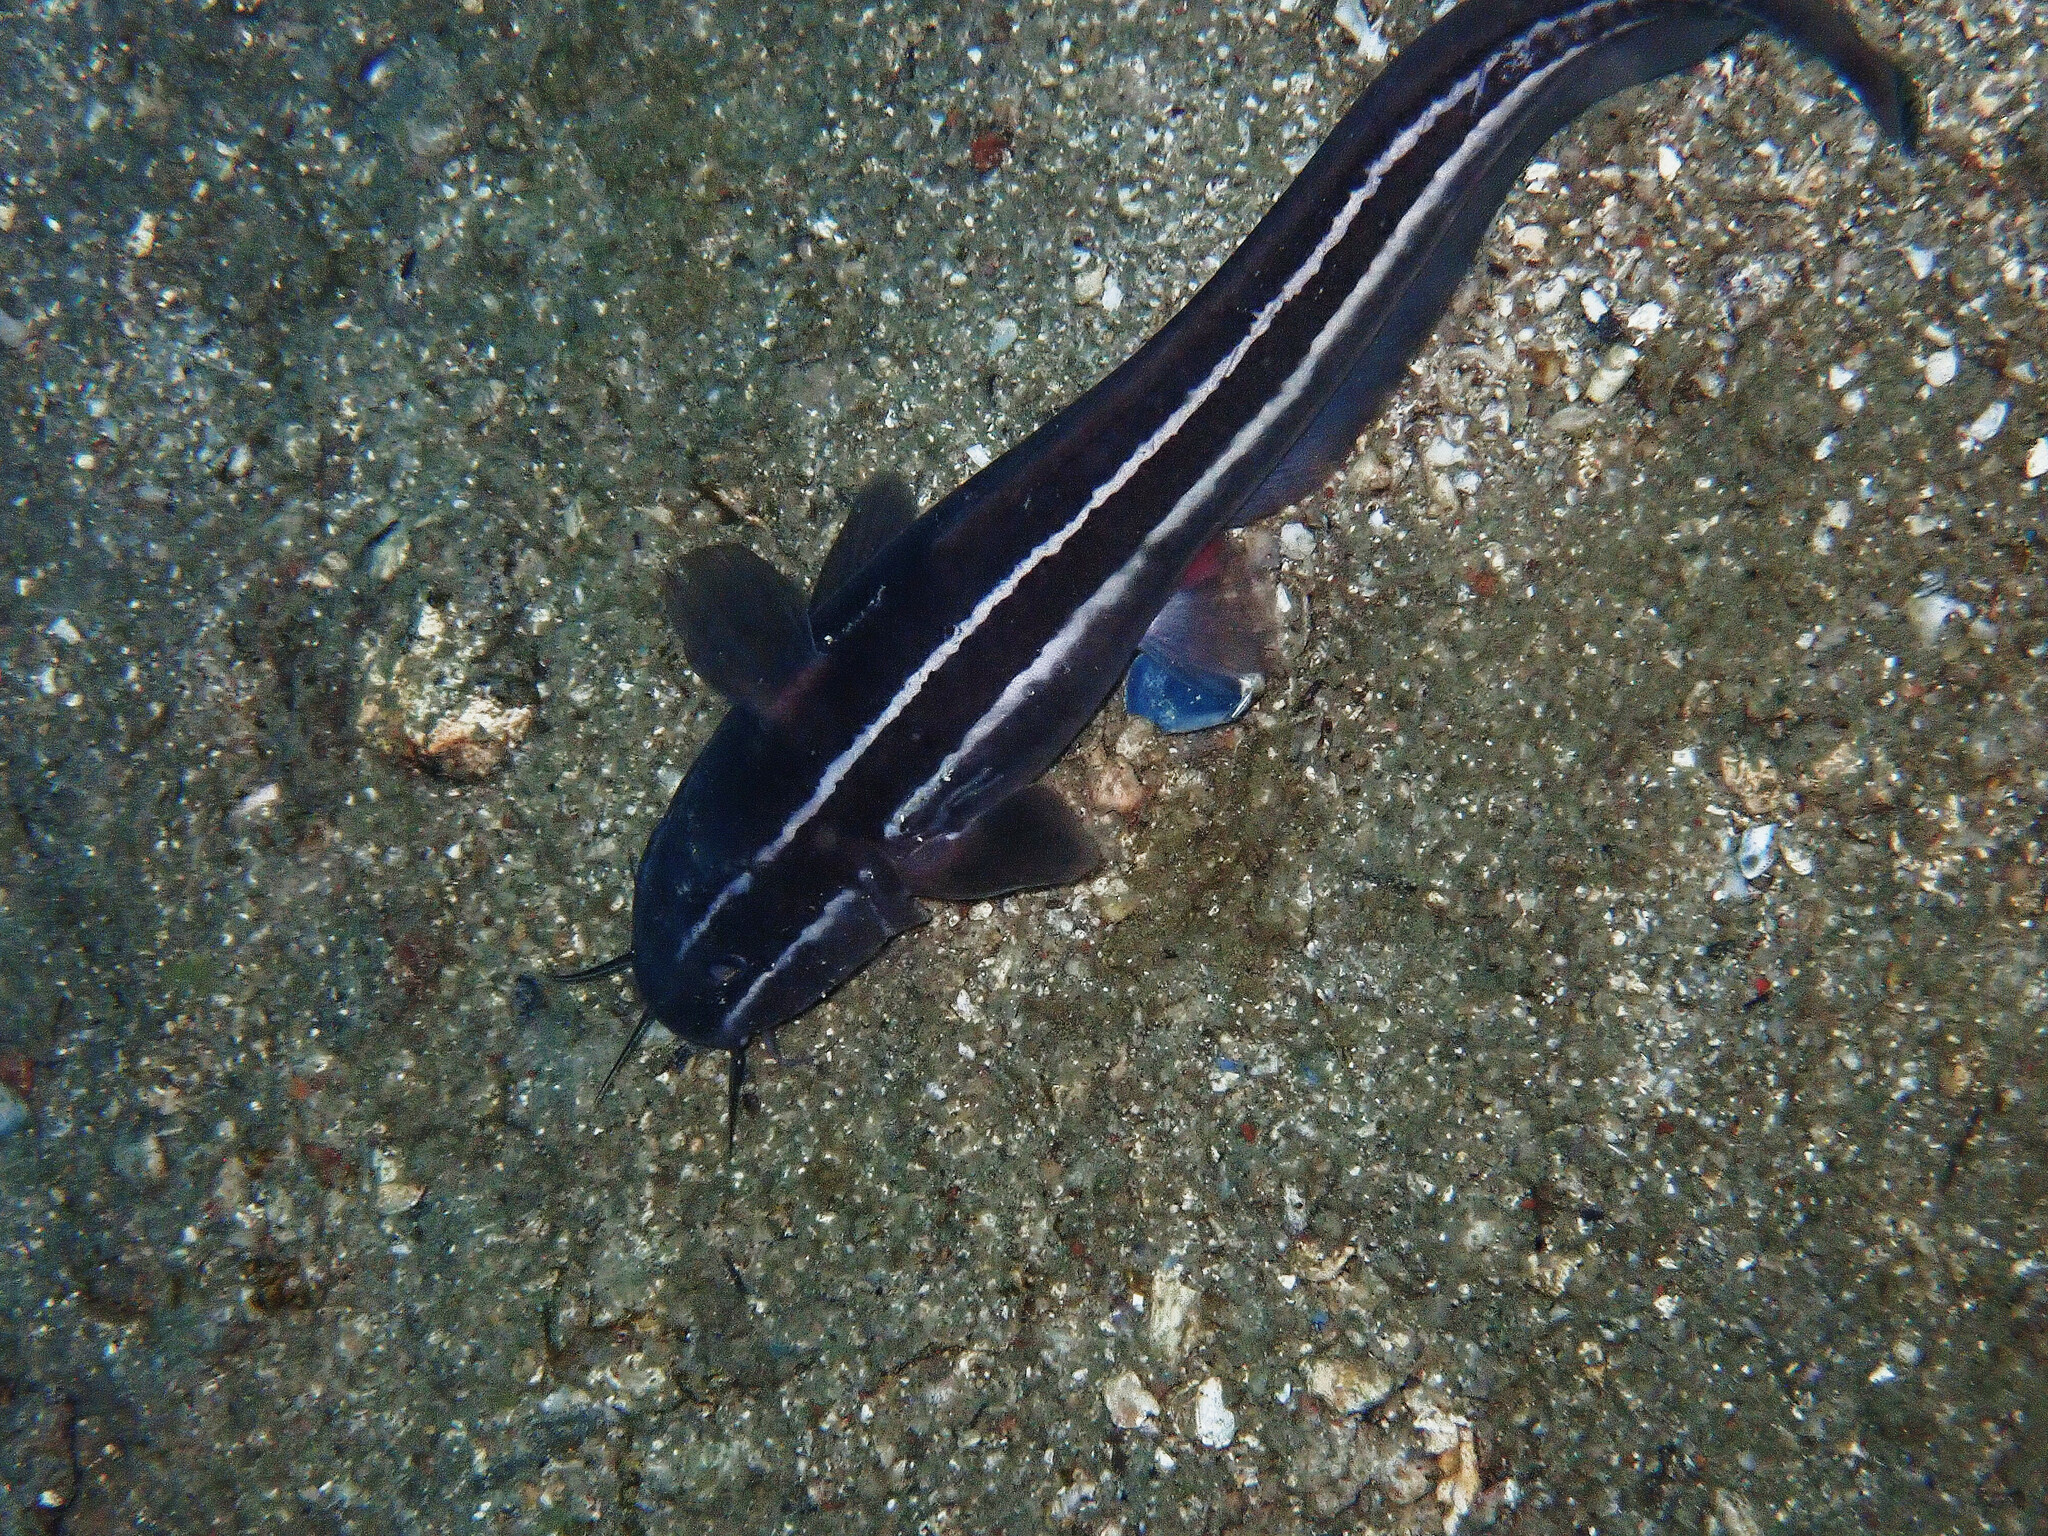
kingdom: Animalia
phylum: Chordata
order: Siluriformes
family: Plotosidae
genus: Plotosus
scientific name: Plotosus lineatus
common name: Striped eel catfish
